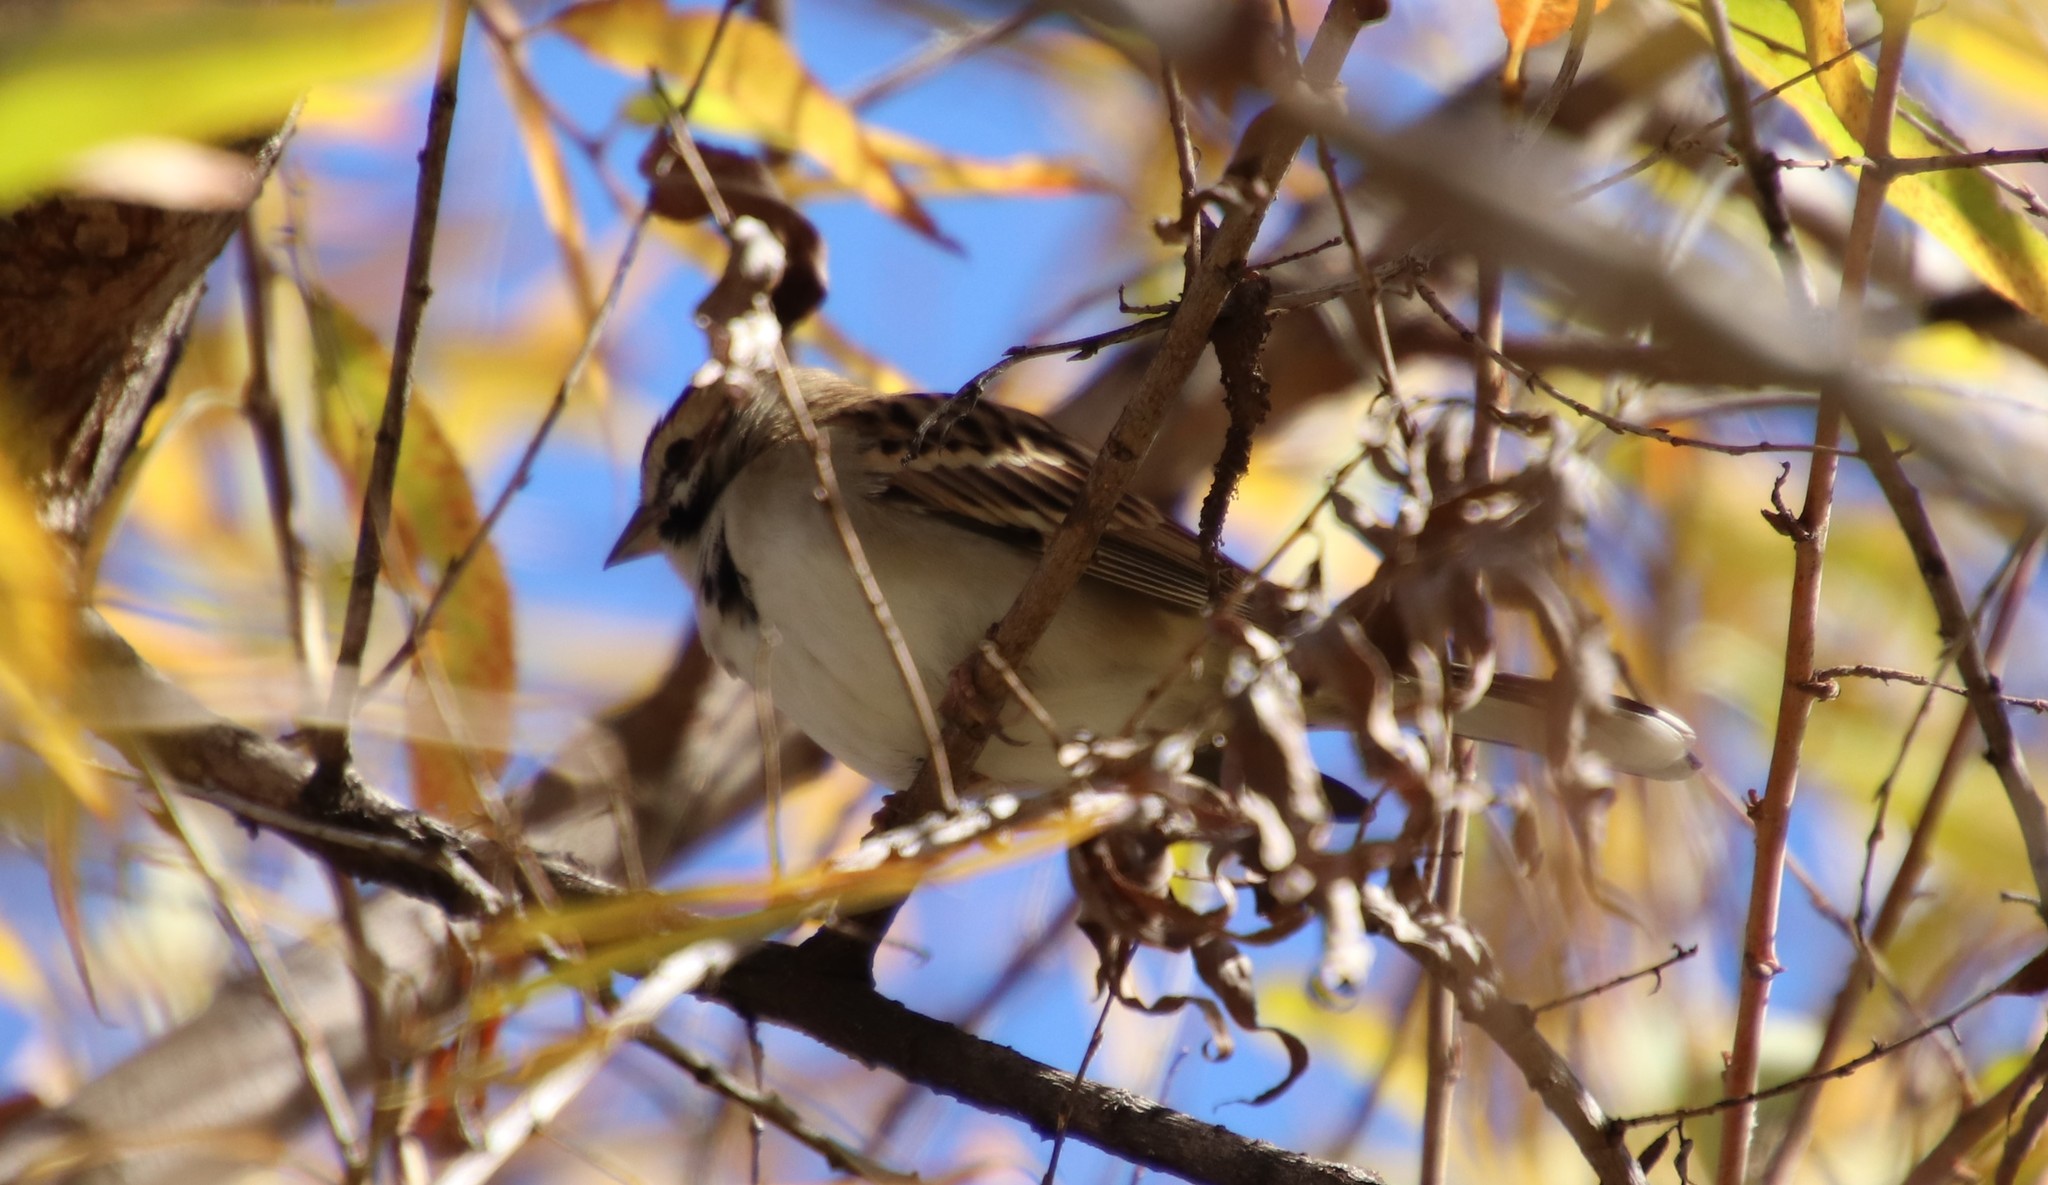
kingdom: Animalia
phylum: Chordata
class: Aves
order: Passeriformes
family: Passerellidae
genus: Chondestes
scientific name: Chondestes grammacus
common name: Lark sparrow
